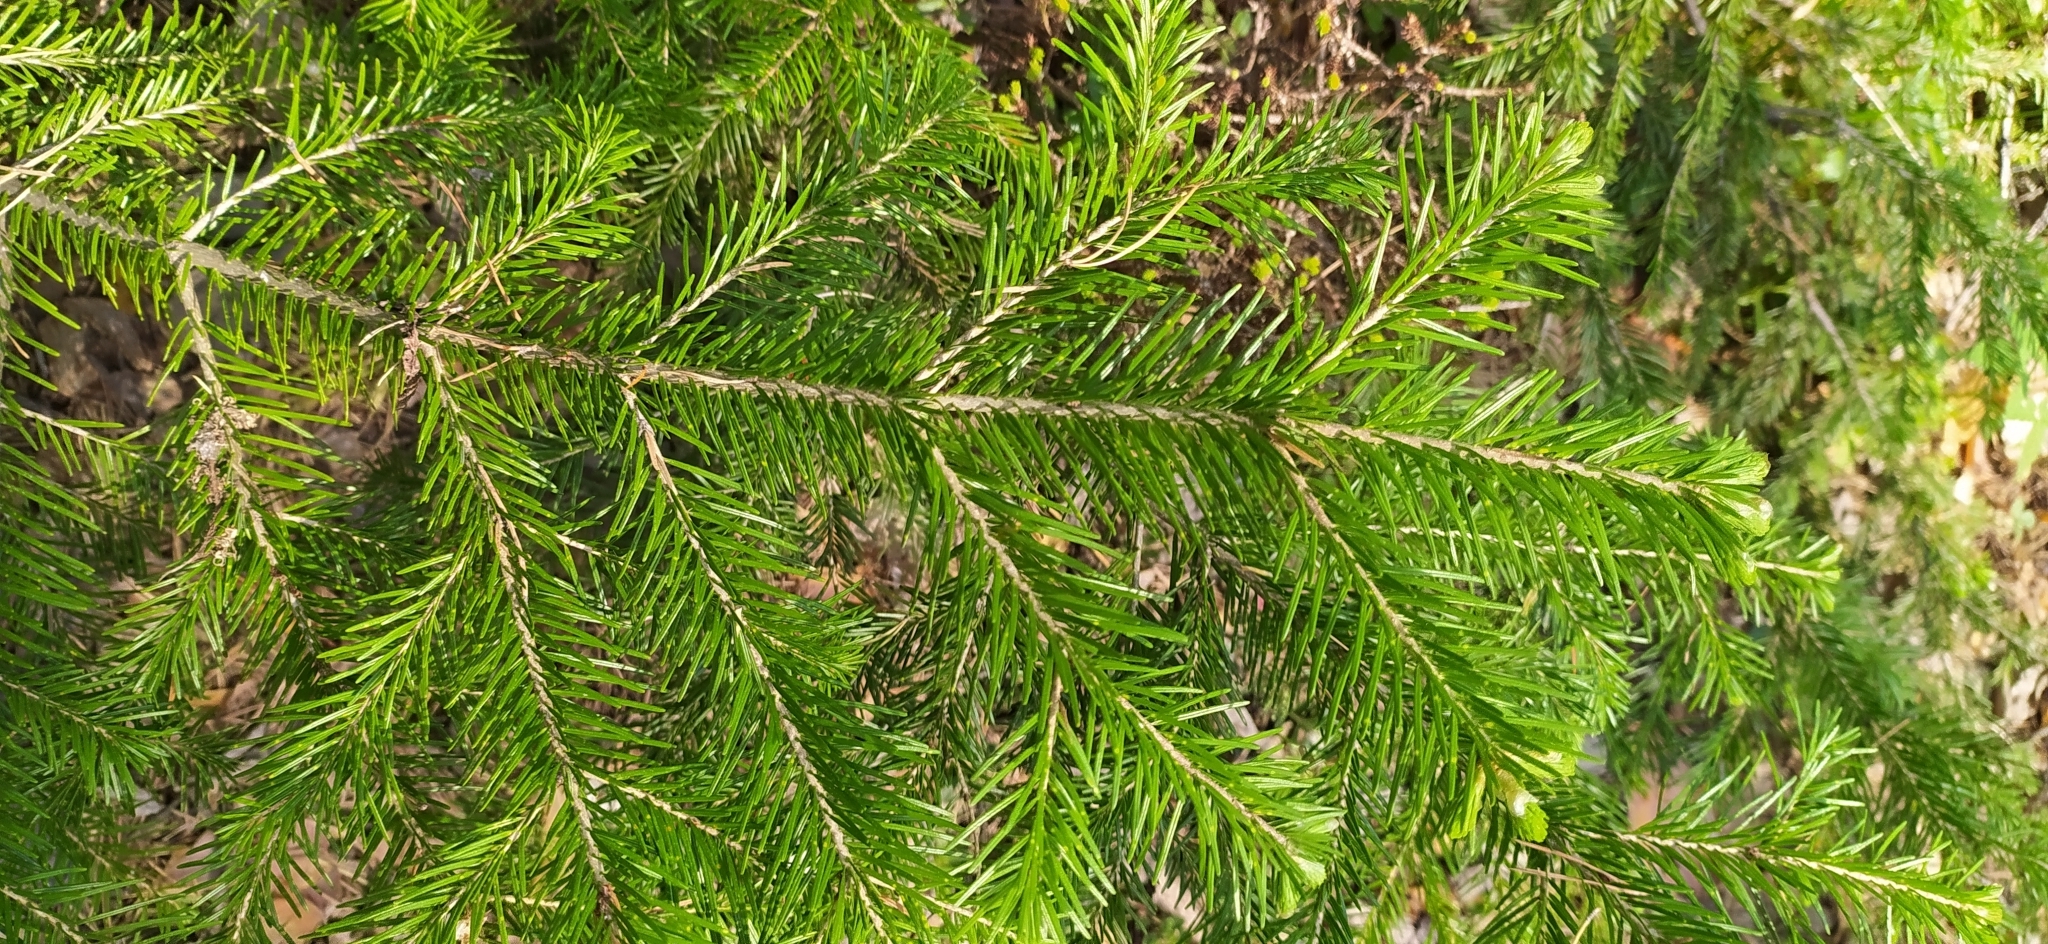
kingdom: Plantae
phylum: Tracheophyta
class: Pinopsida
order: Pinales
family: Pinaceae
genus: Abies
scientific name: Abies sibirica
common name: Siberian fir
